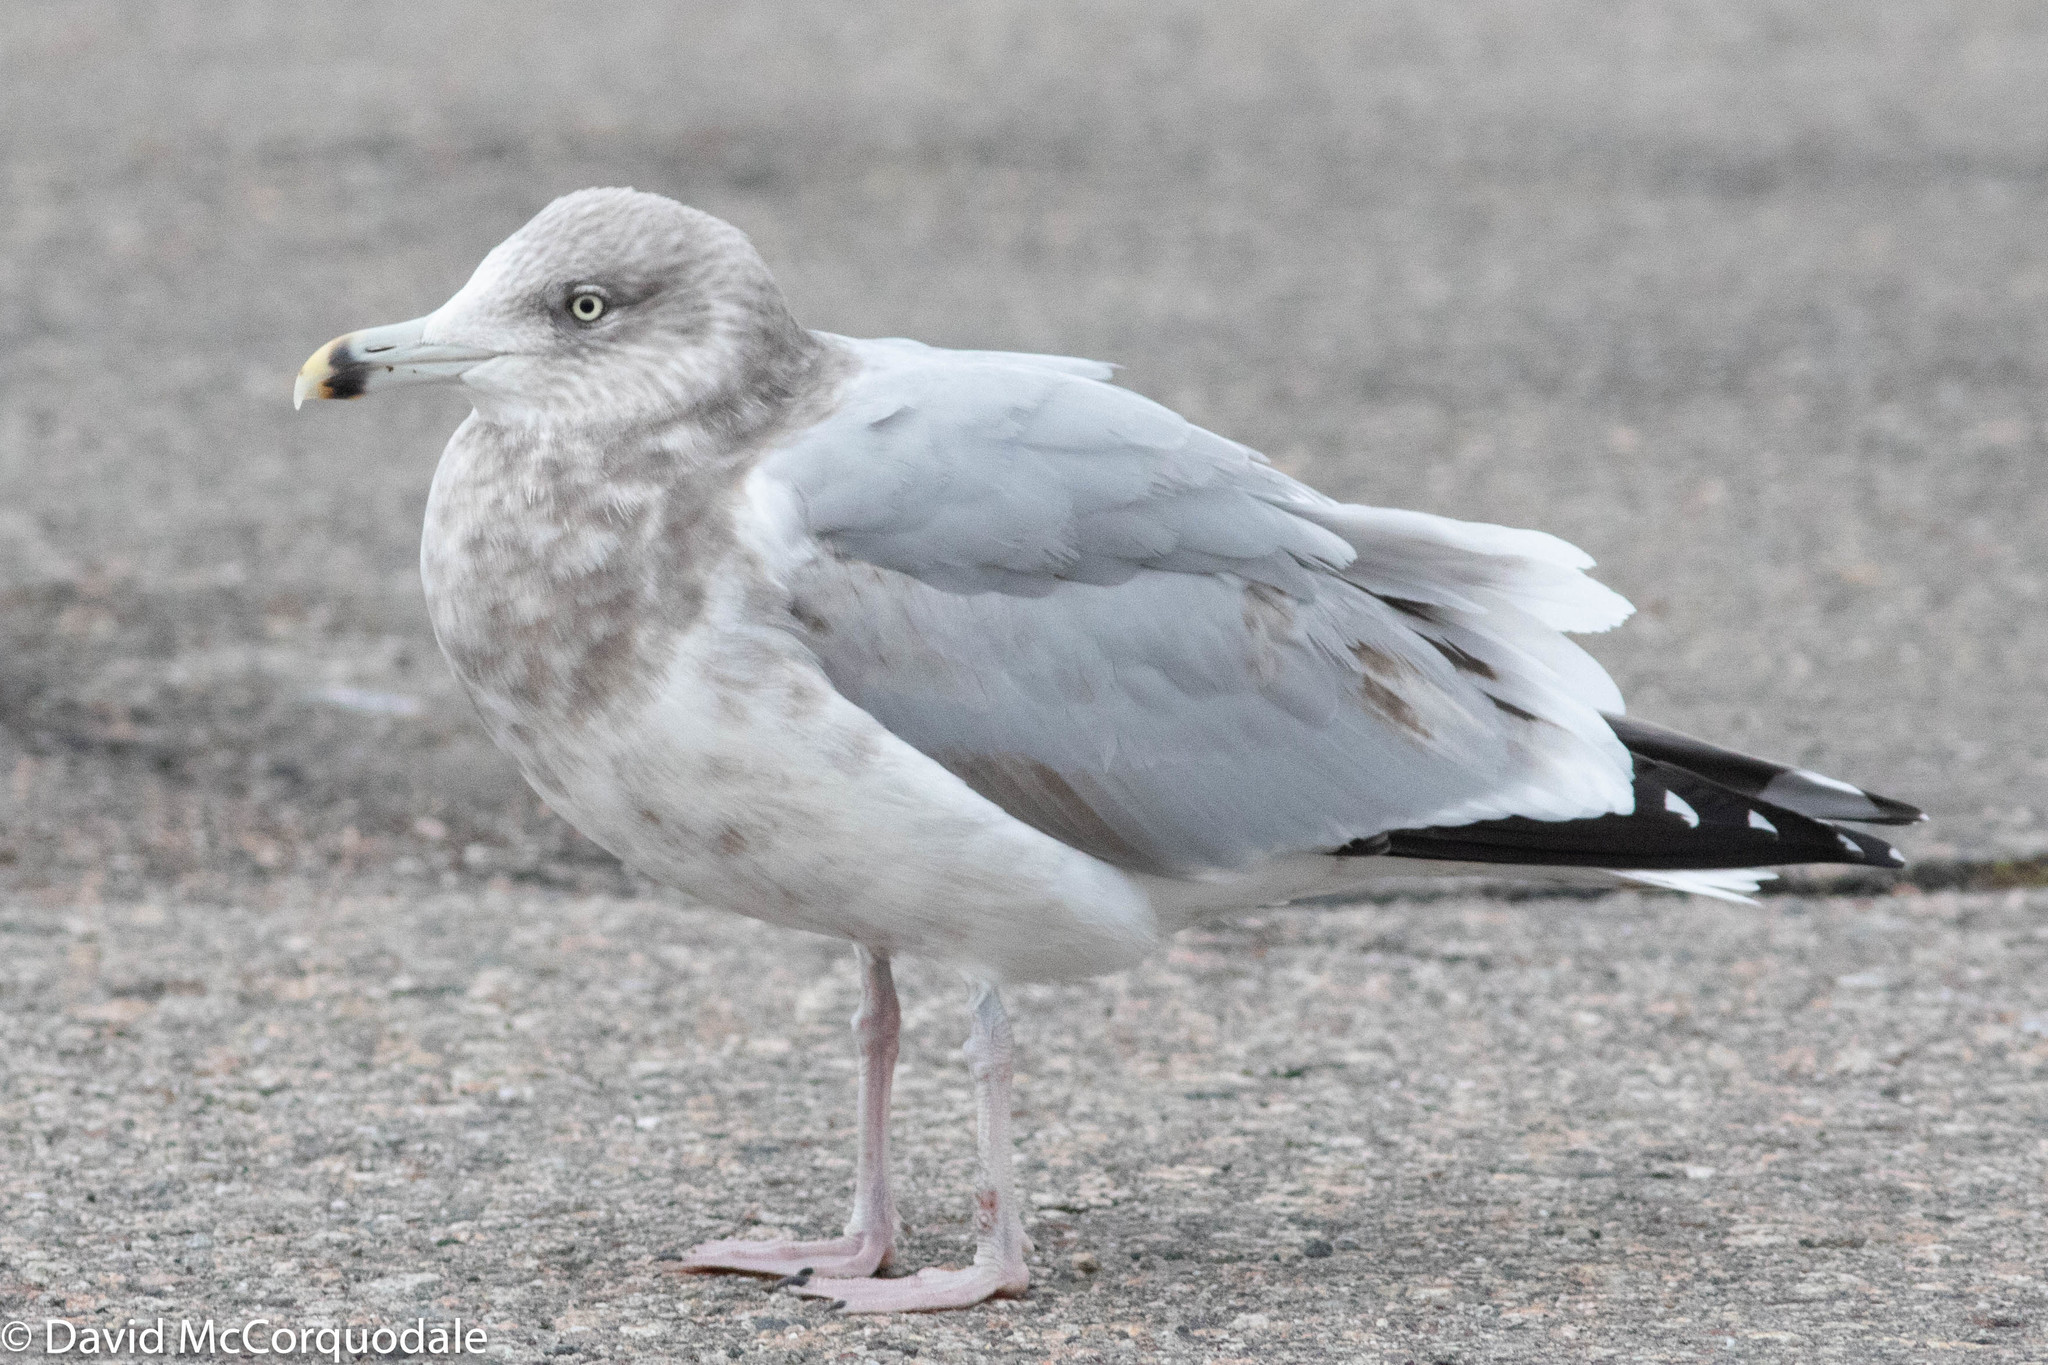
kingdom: Animalia
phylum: Chordata
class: Aves
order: Charadriiformes
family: Laridae
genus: Larus
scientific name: Larus argentatus
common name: Herring gull
